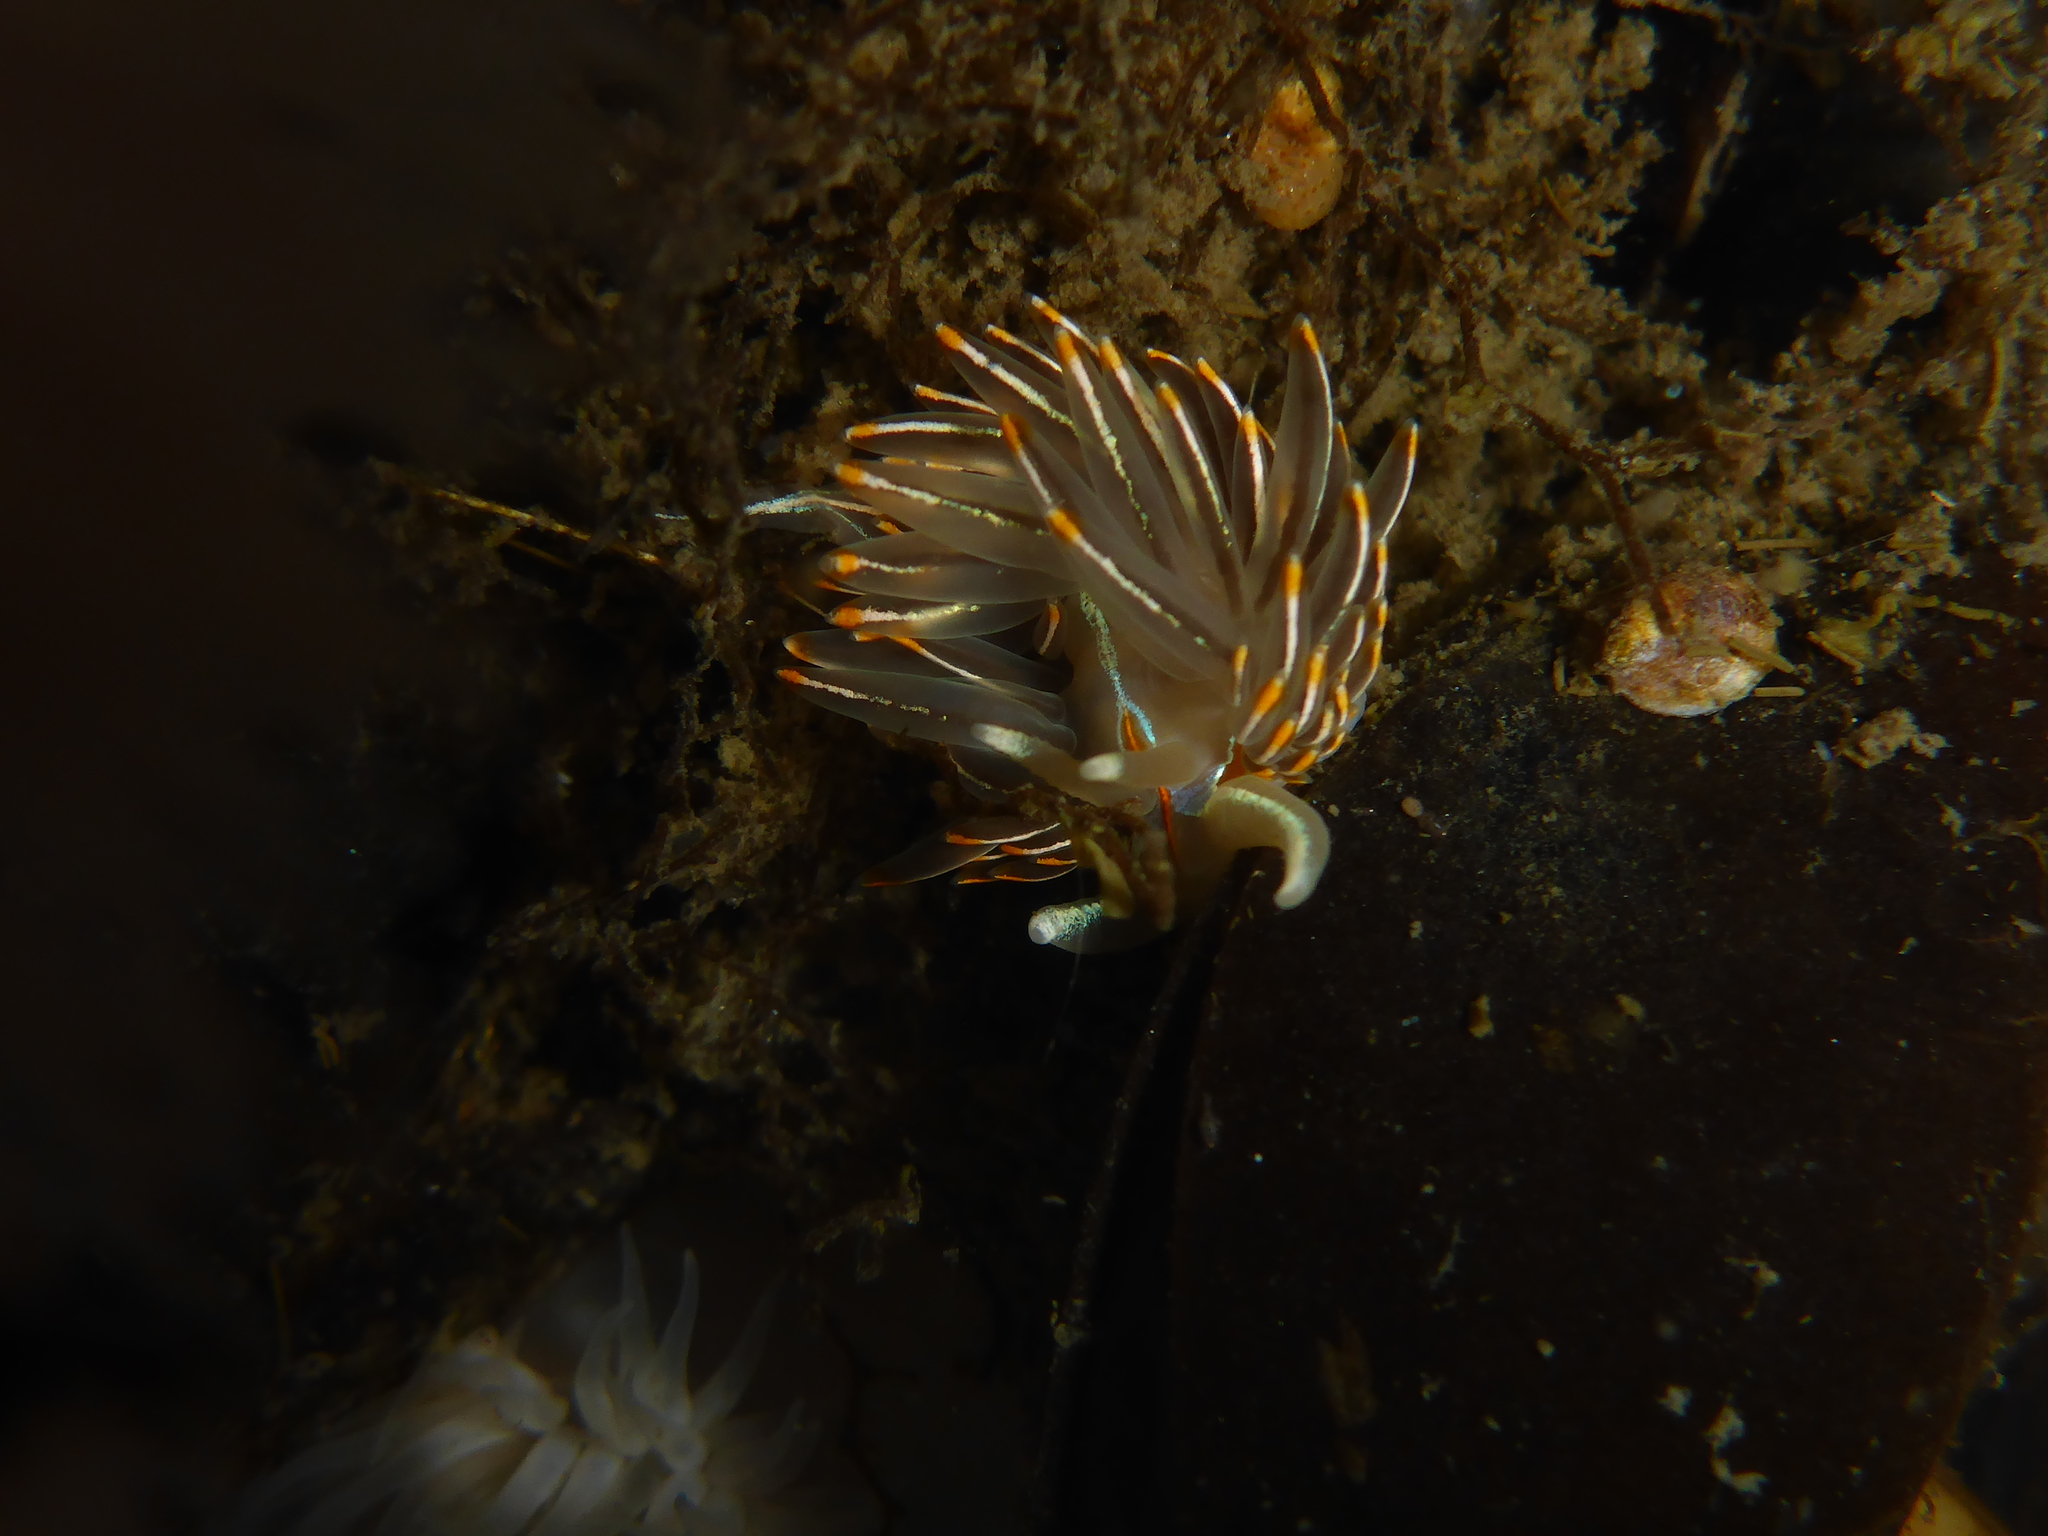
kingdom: Animalia
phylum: Mollusca
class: Gastropoda
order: Nudibranchia
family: Myrrhinidae
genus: Hermissenda
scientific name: Hermissenda crassicornis
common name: Hermissenda
